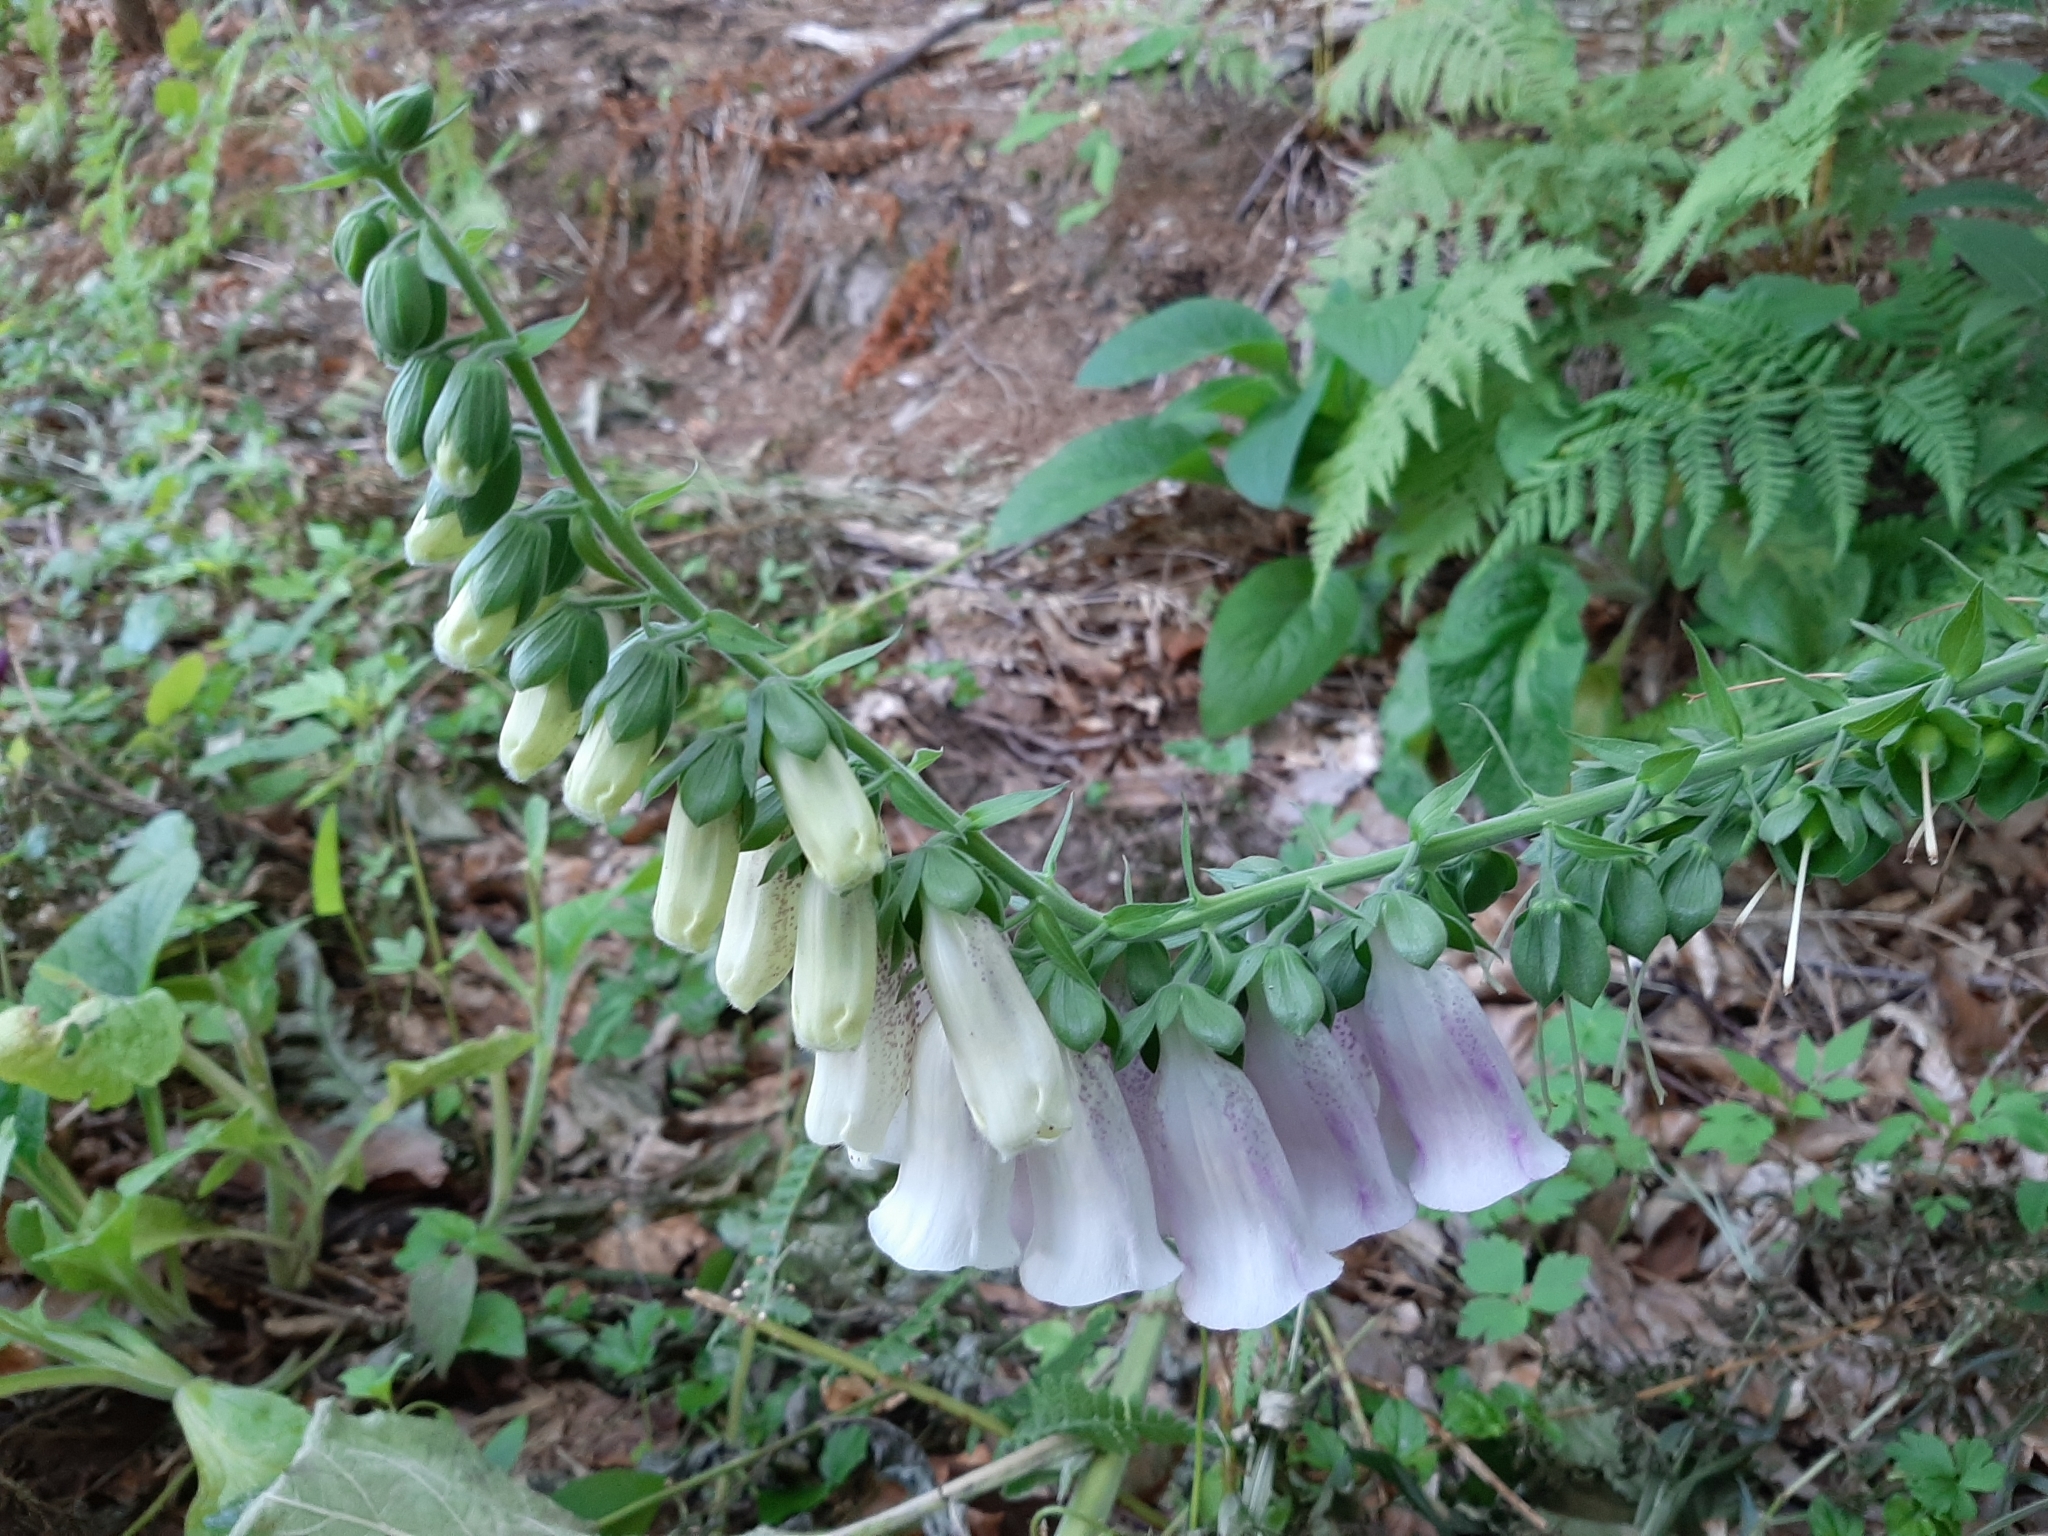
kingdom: Plantae
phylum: Tracheophyta
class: Magnoliopsida
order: Lamiales
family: Plantaginaceae
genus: Digitalis
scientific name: Digitalis purpurea
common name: Foxglove
